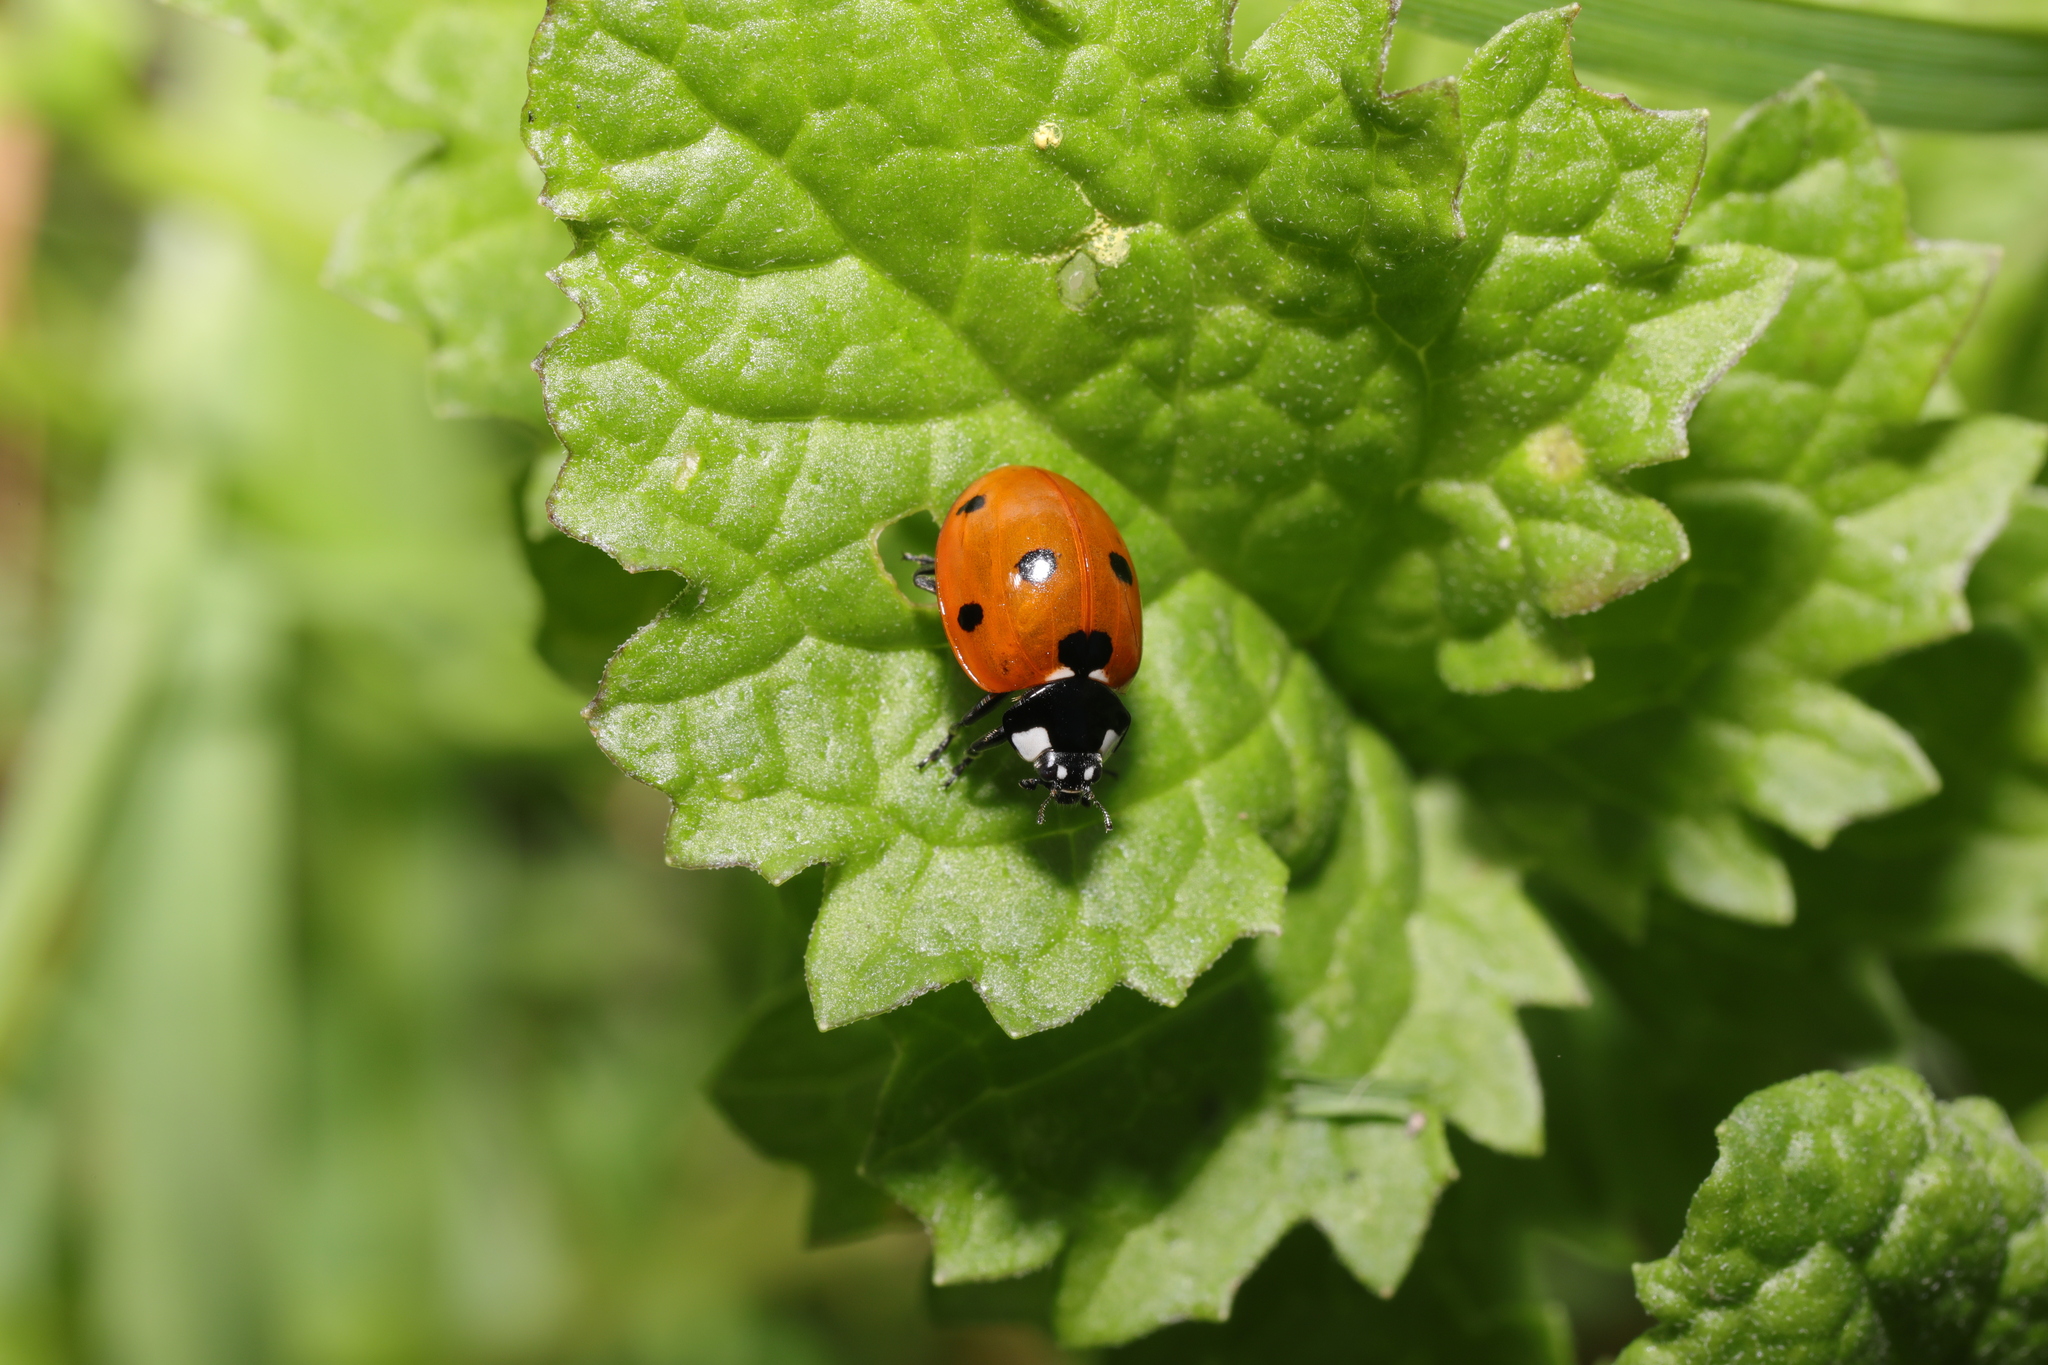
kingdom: Animalia
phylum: Arthropoda
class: Insecta
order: Coleoptera
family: Coccinellidae
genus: Coccinella
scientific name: Coccinella septempunctata
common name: Sevenspotted lady beetle
